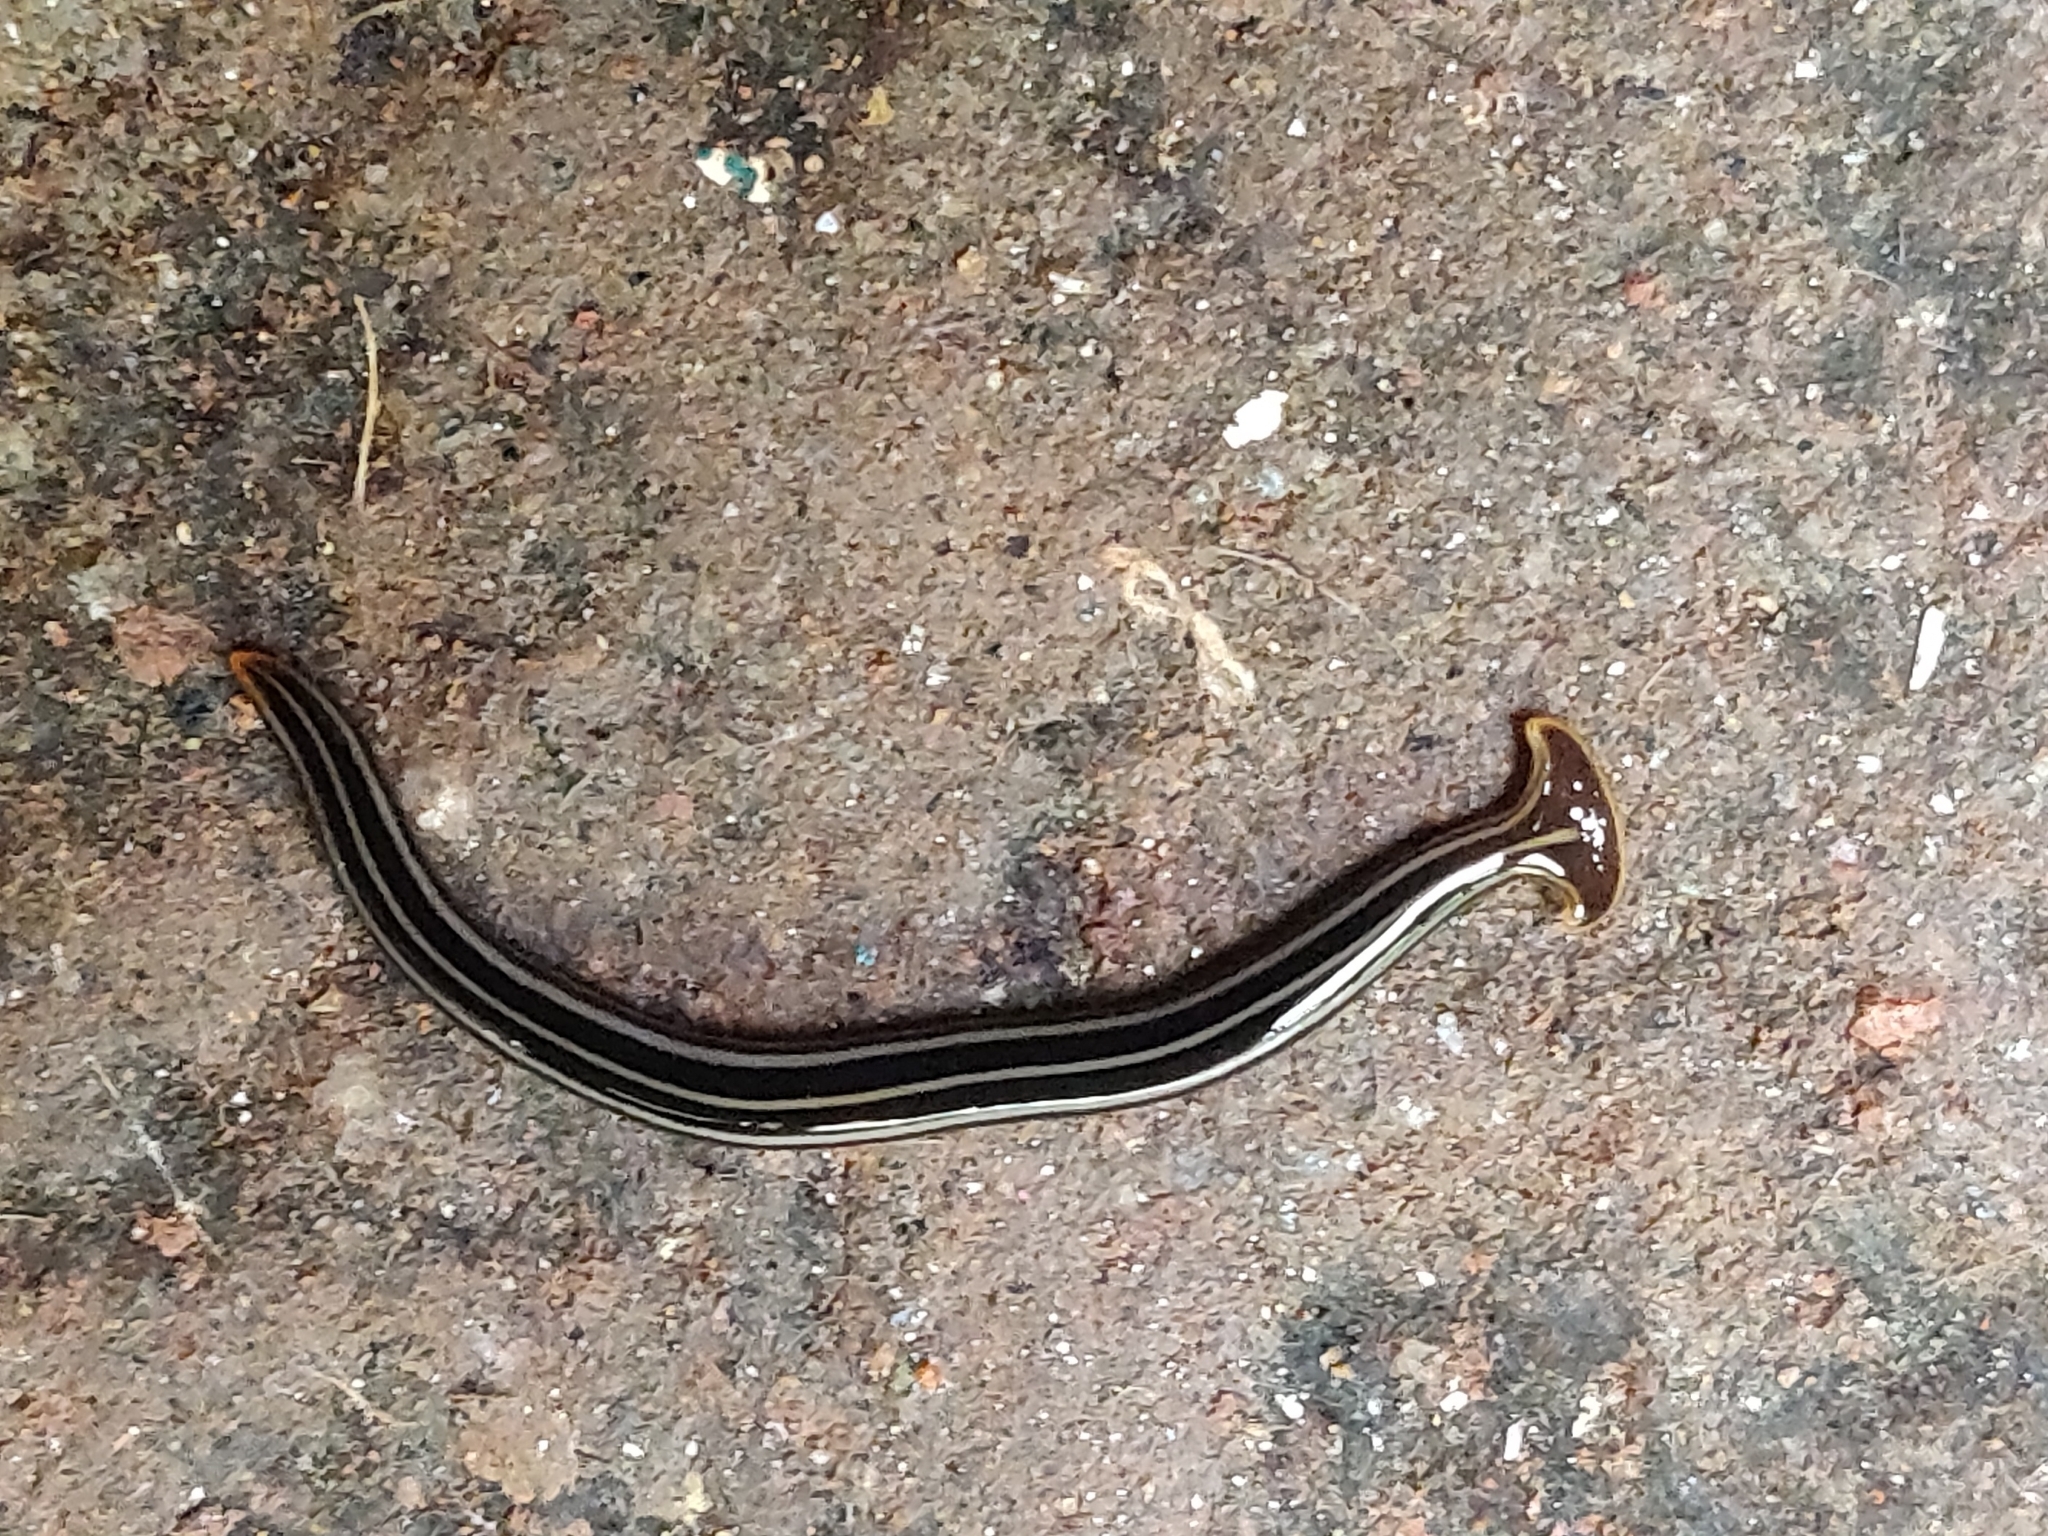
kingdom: Animalia
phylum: Platyhelminthes
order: Tricladida
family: Geoplanidae
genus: Humbertium
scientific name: Humbertium proserpina
